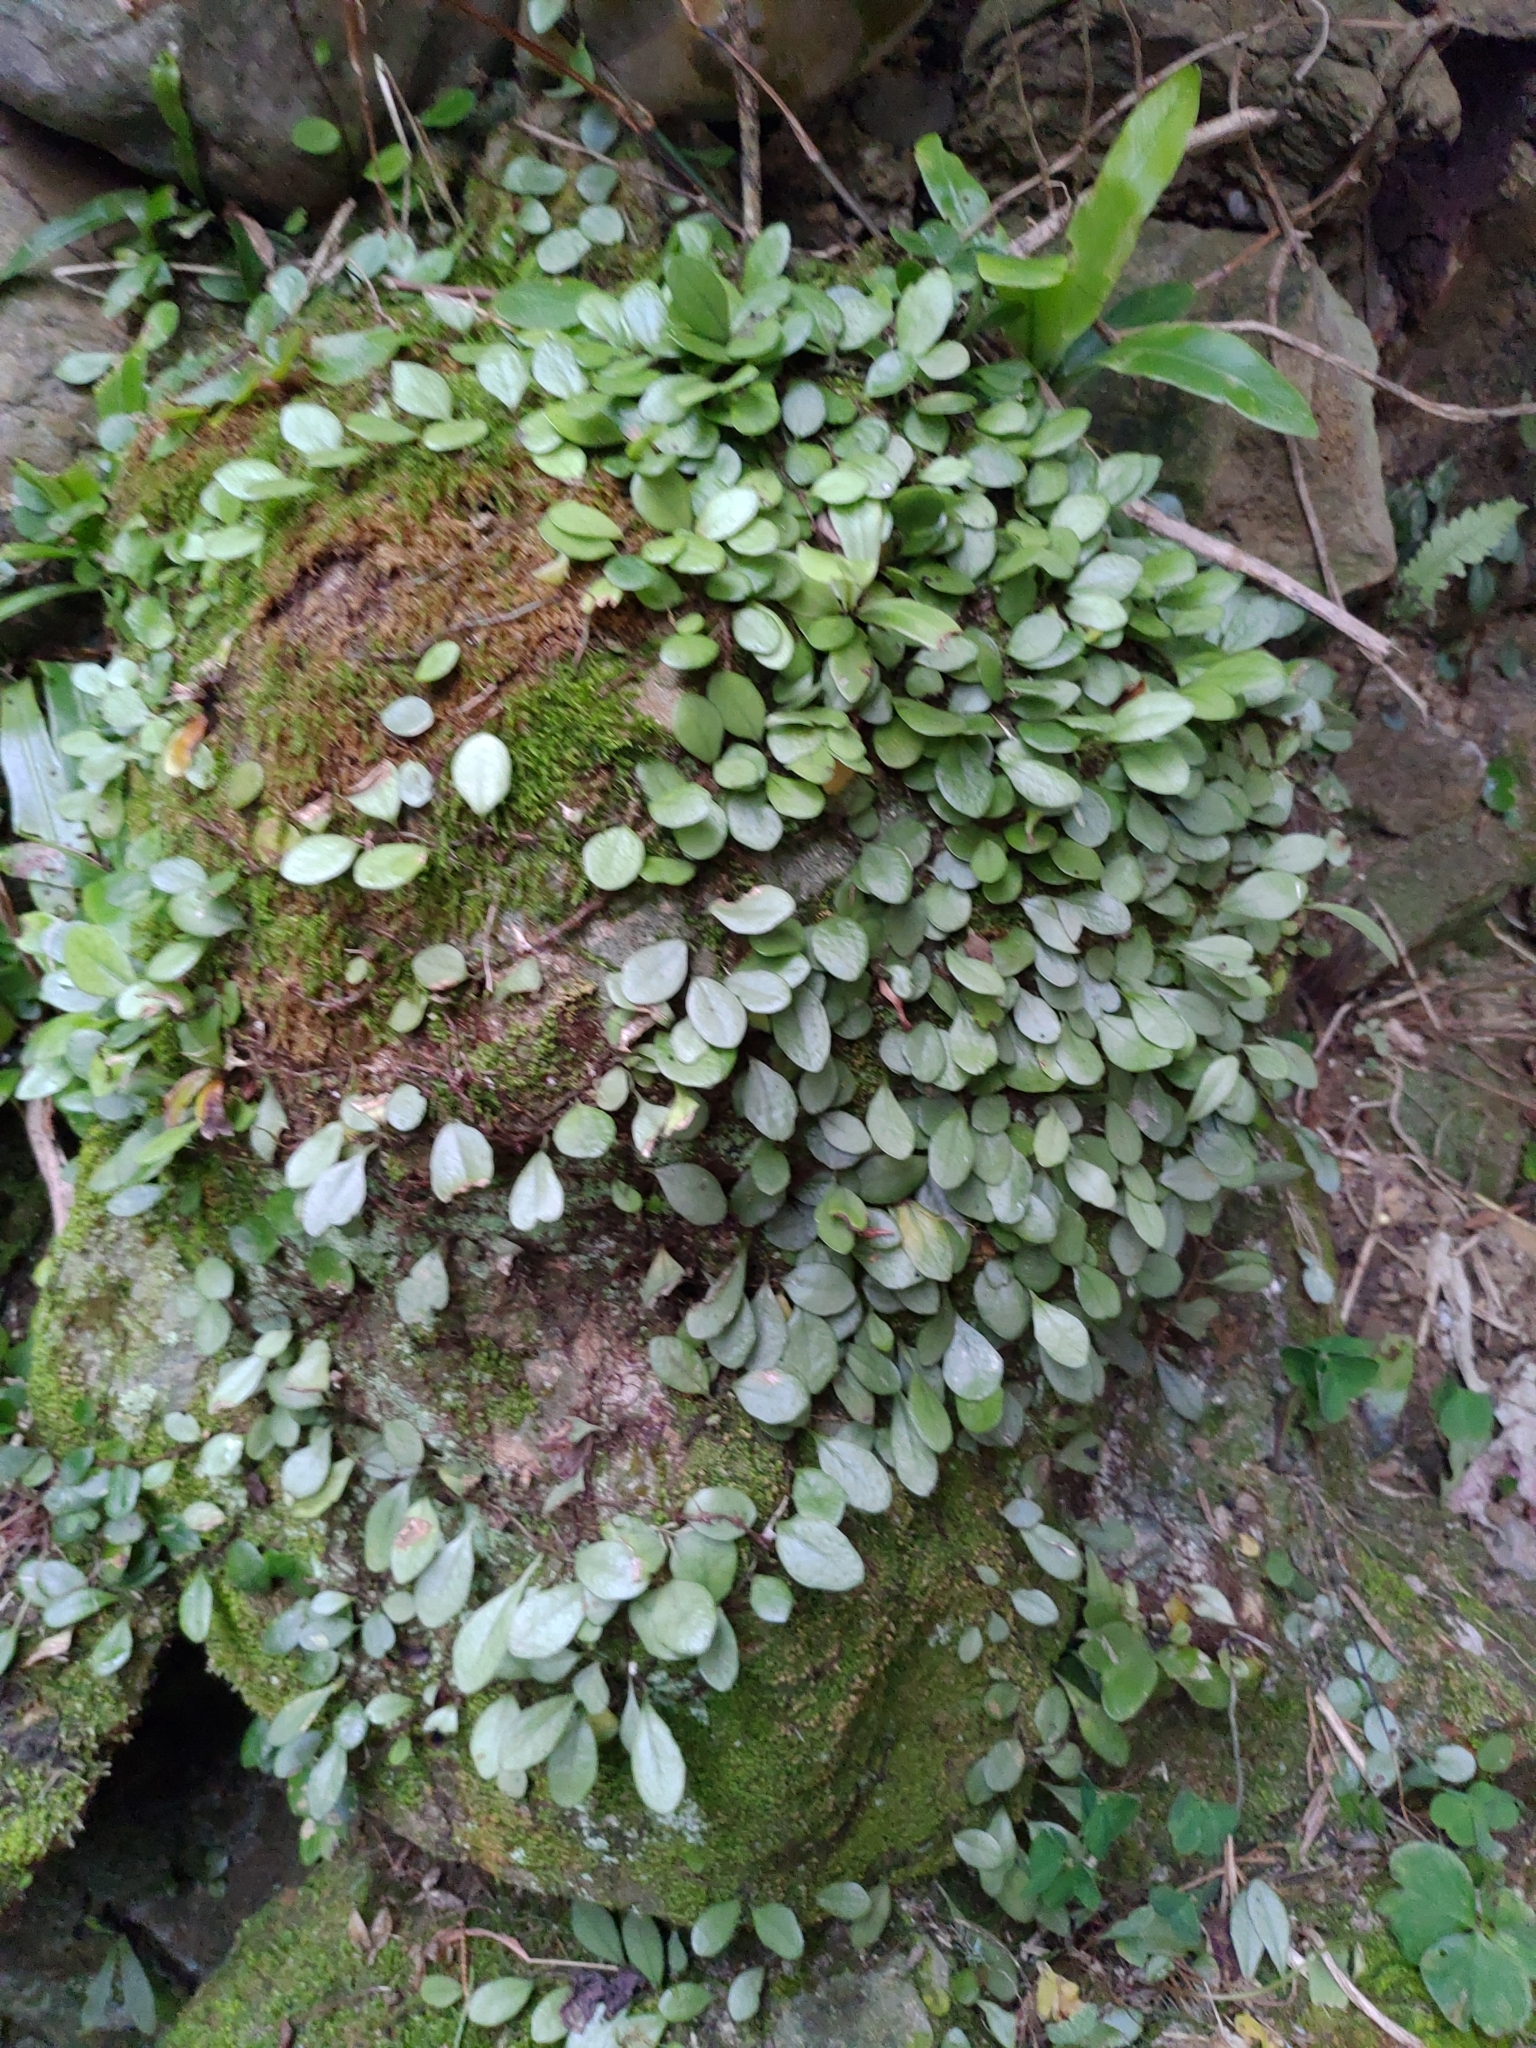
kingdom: Plantae
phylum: Tracheophyta
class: Polypodiopsida
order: Polypodiales
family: Polypodiaceae
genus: Lepisorus
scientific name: Lepisorus microphyllus
